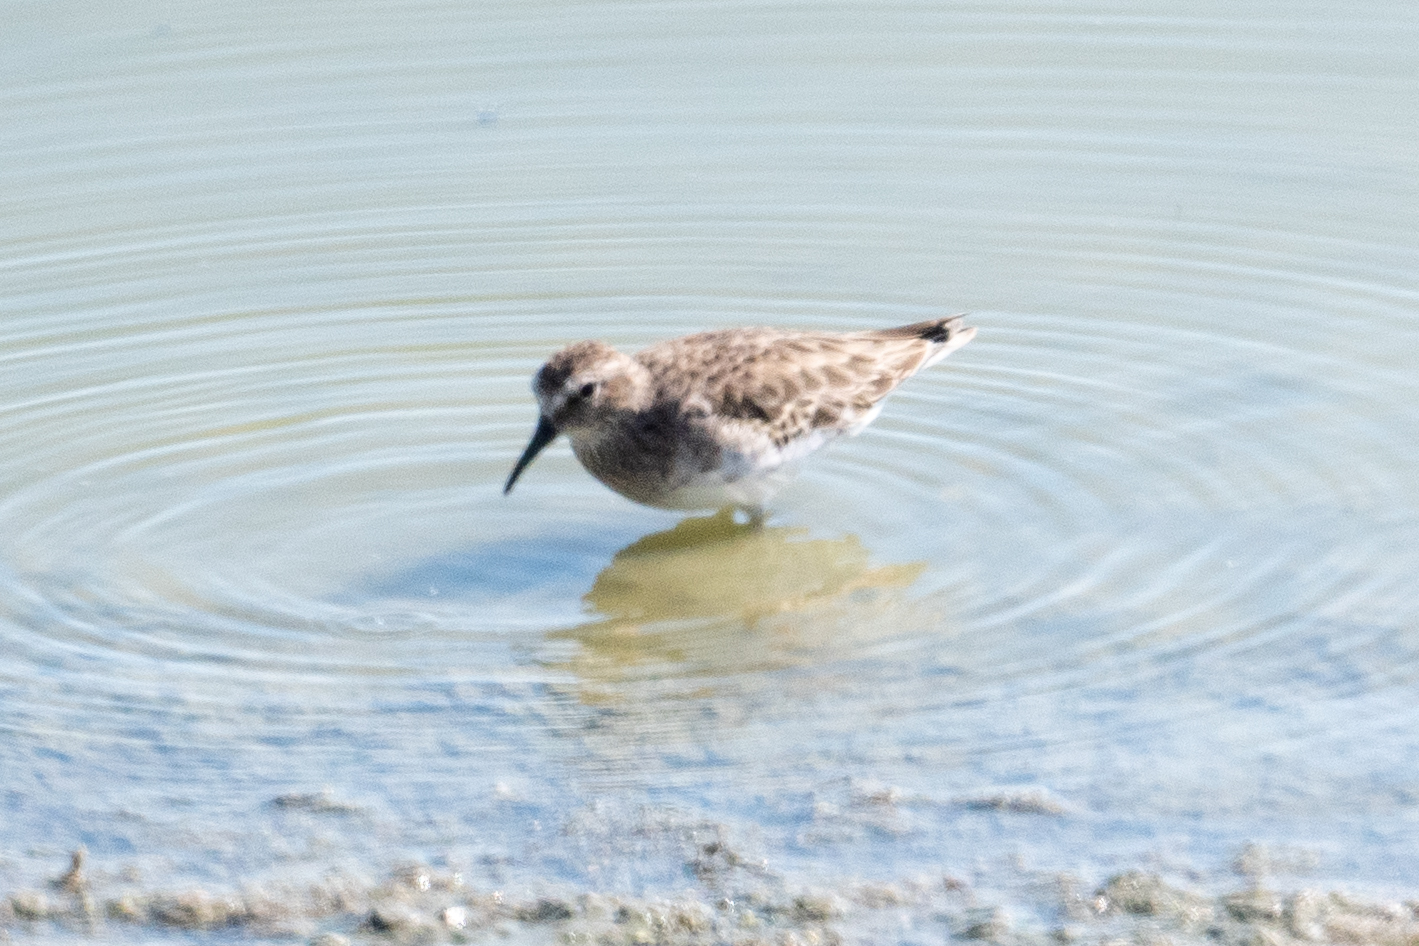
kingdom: Animalia
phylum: Chordata
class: Aves
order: Charadriiformes
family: Scolopacidae
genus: Calidris
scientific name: Calidris minutilla
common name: Least sandpiper
